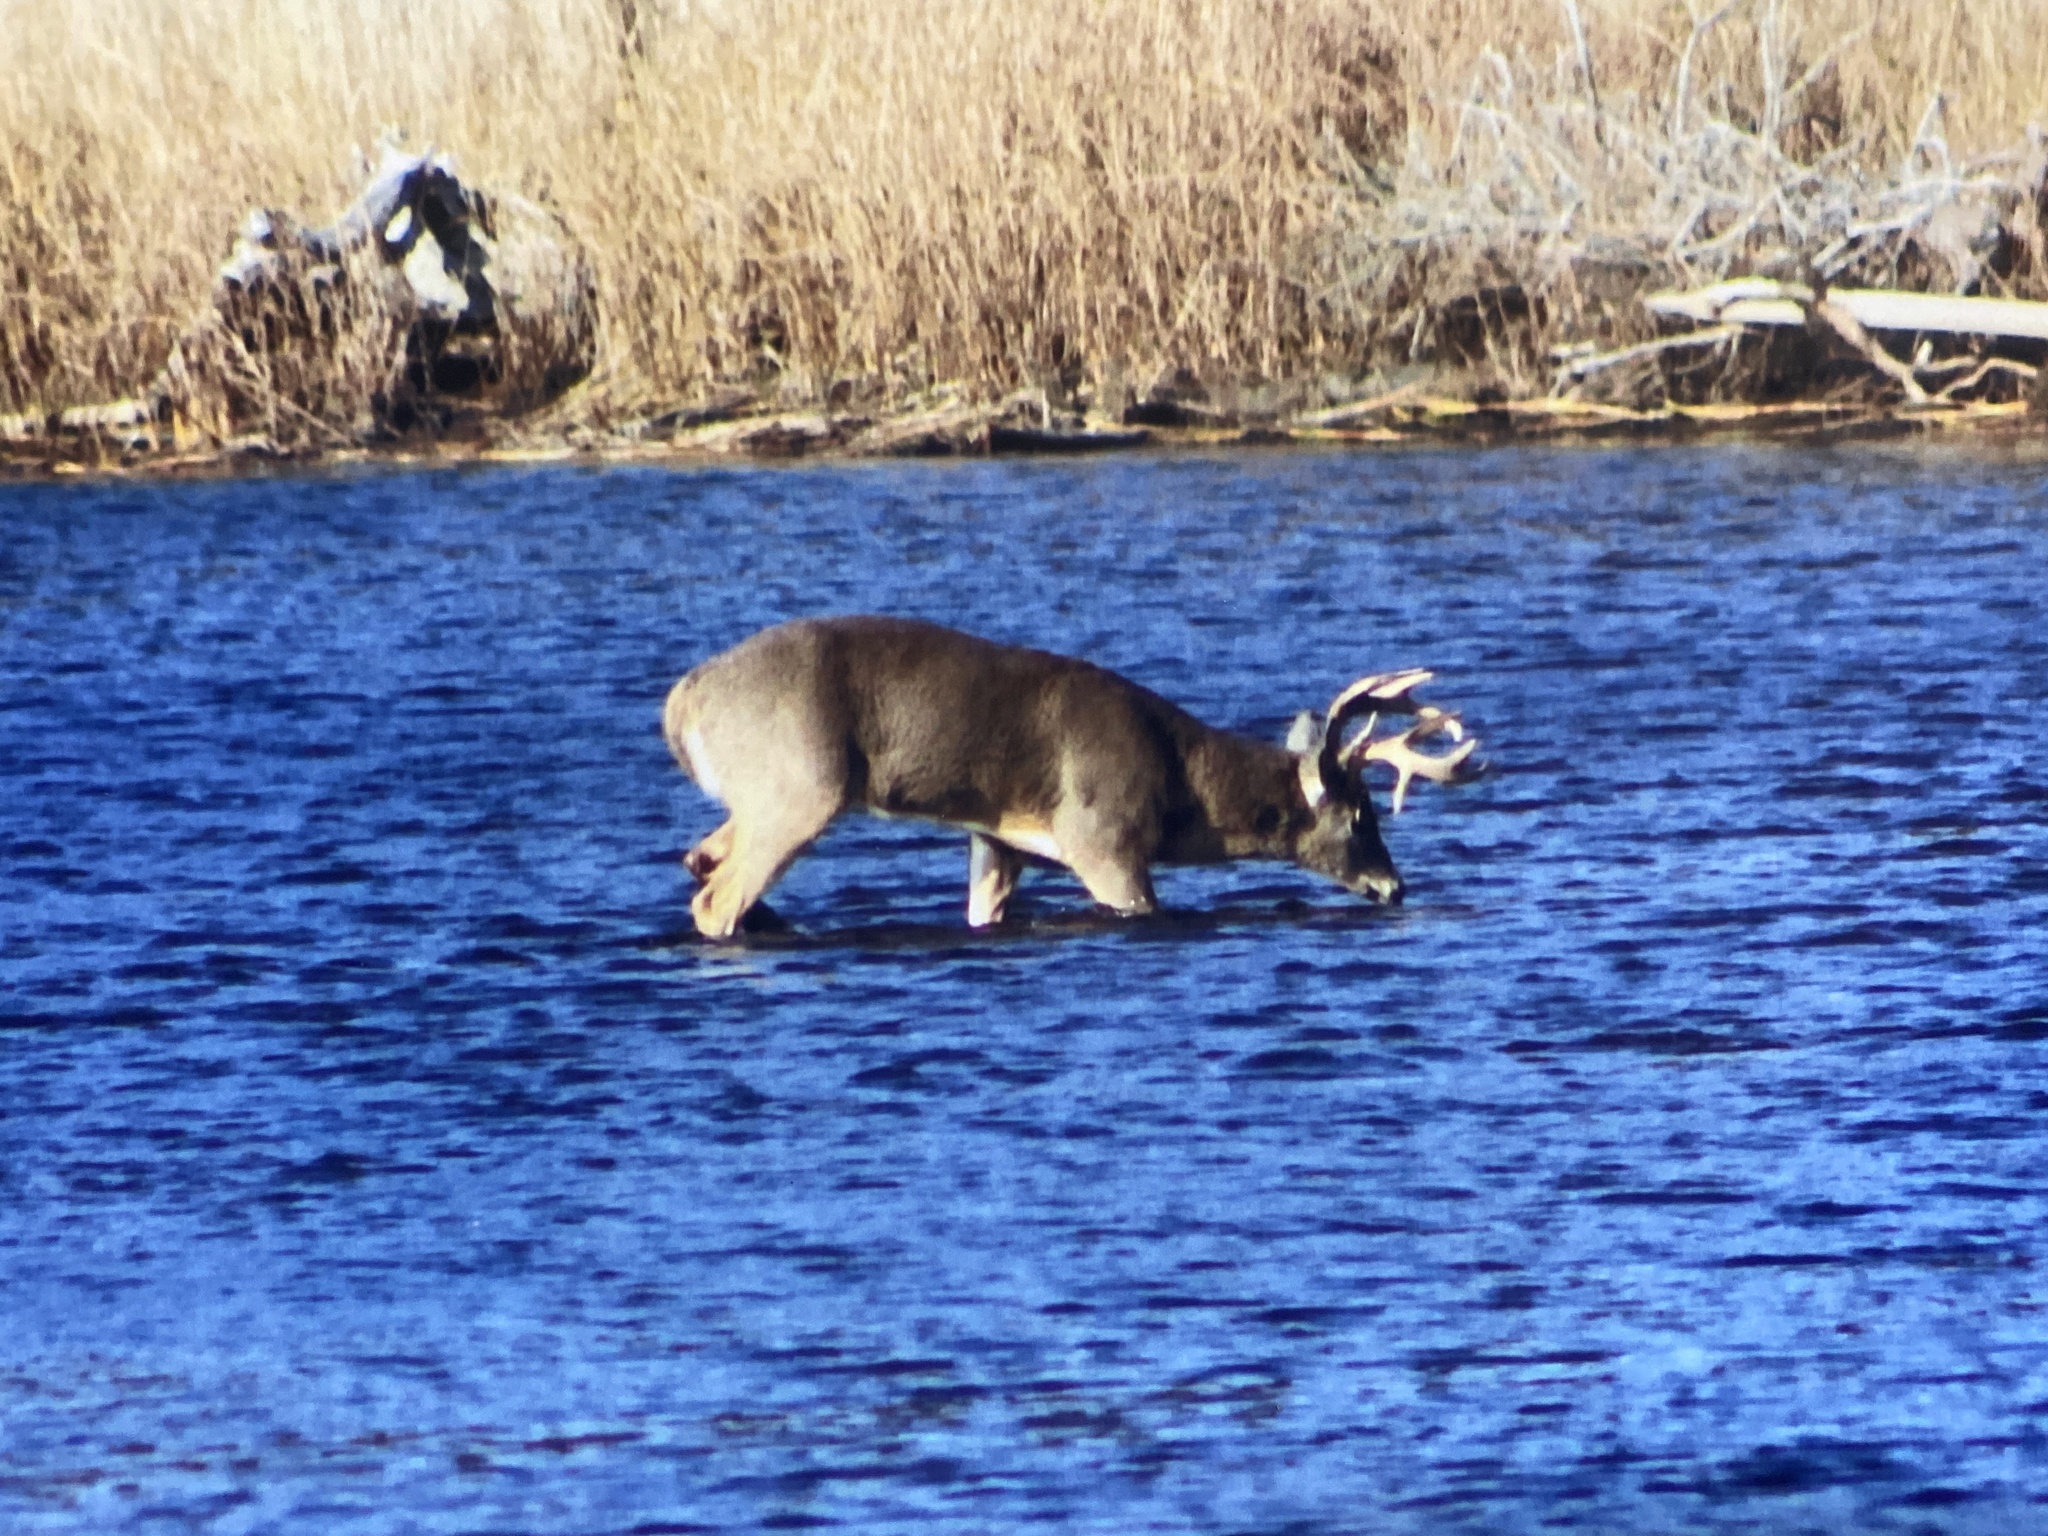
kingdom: Animalia
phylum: Chordata
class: Mammalia
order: Artiodactyla
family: Cervidae
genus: Odocoileus
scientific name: Odocoileus virginianus
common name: White-tailed deer
